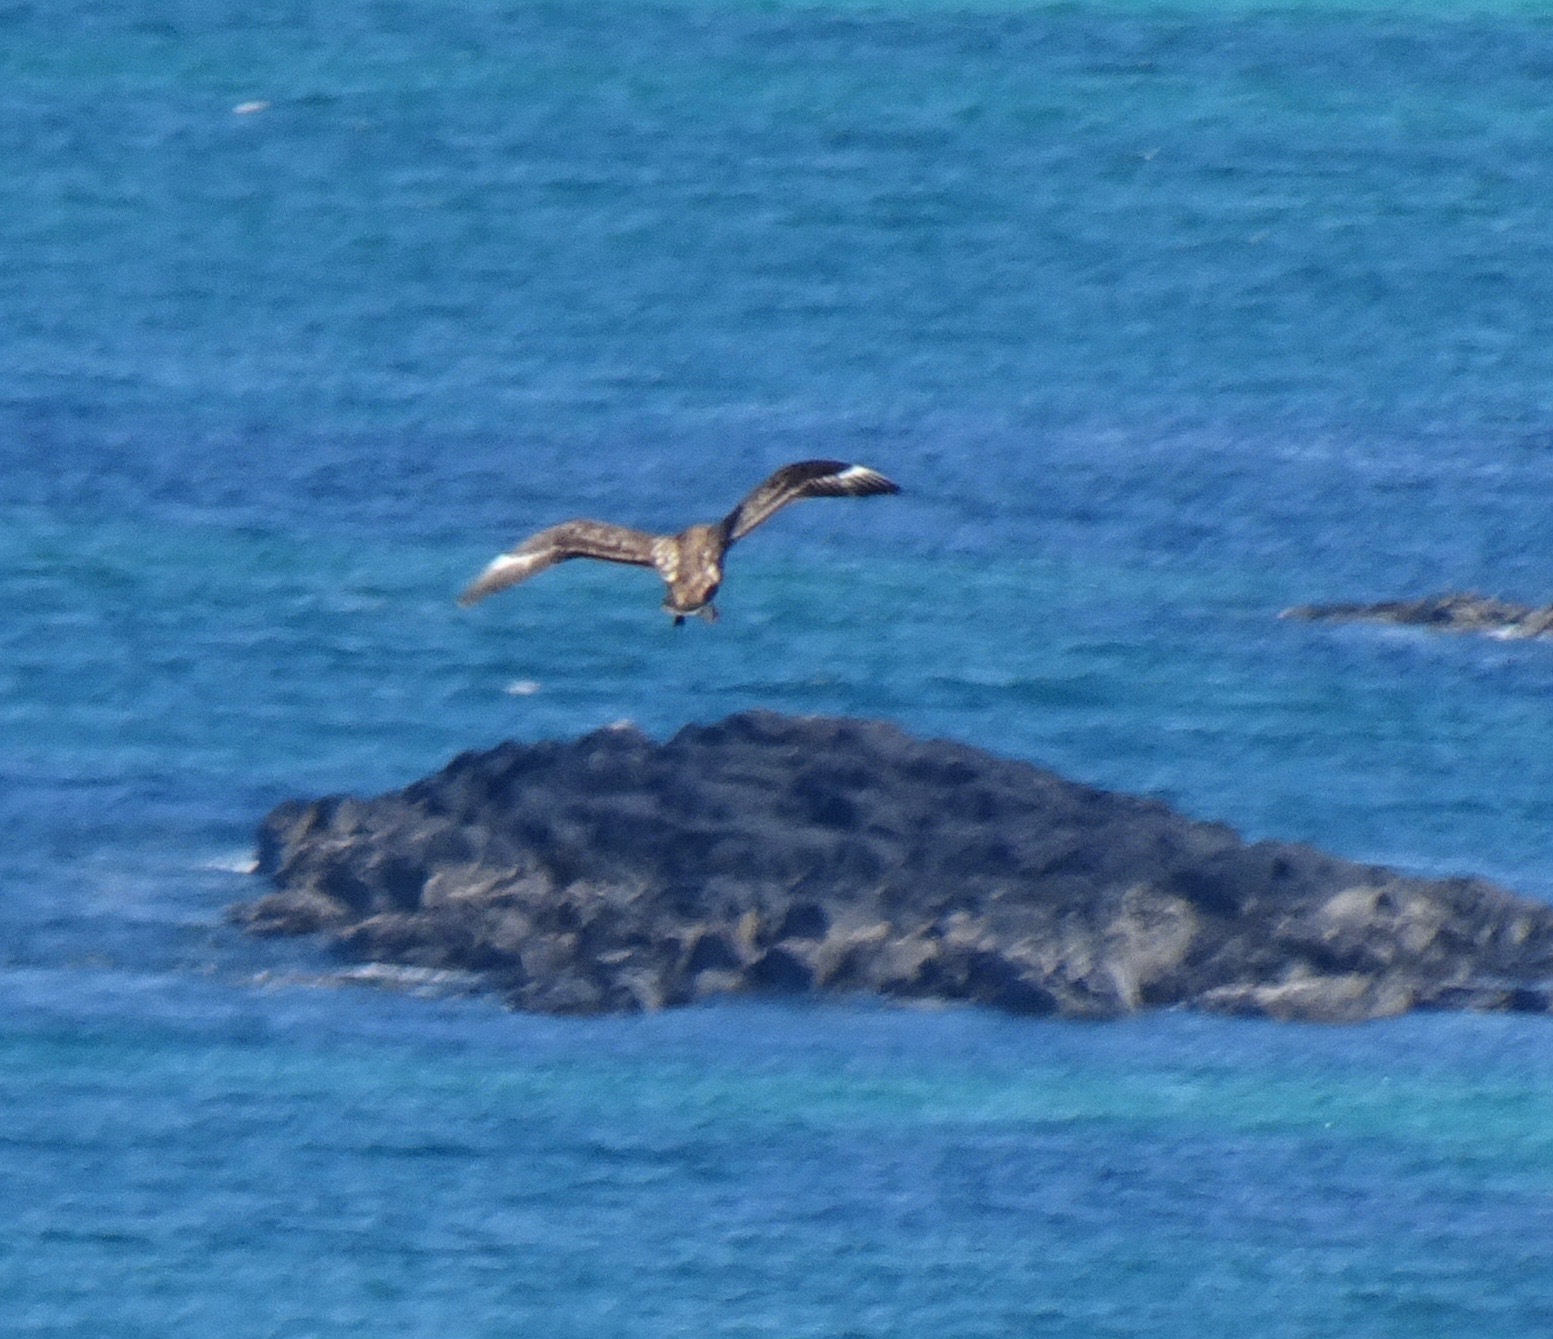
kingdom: Animalia
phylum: Chordata
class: Aves
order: Charadriiformes
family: Stercorariidae
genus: Stercorarius
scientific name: Stercorarius skua
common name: Great skua
